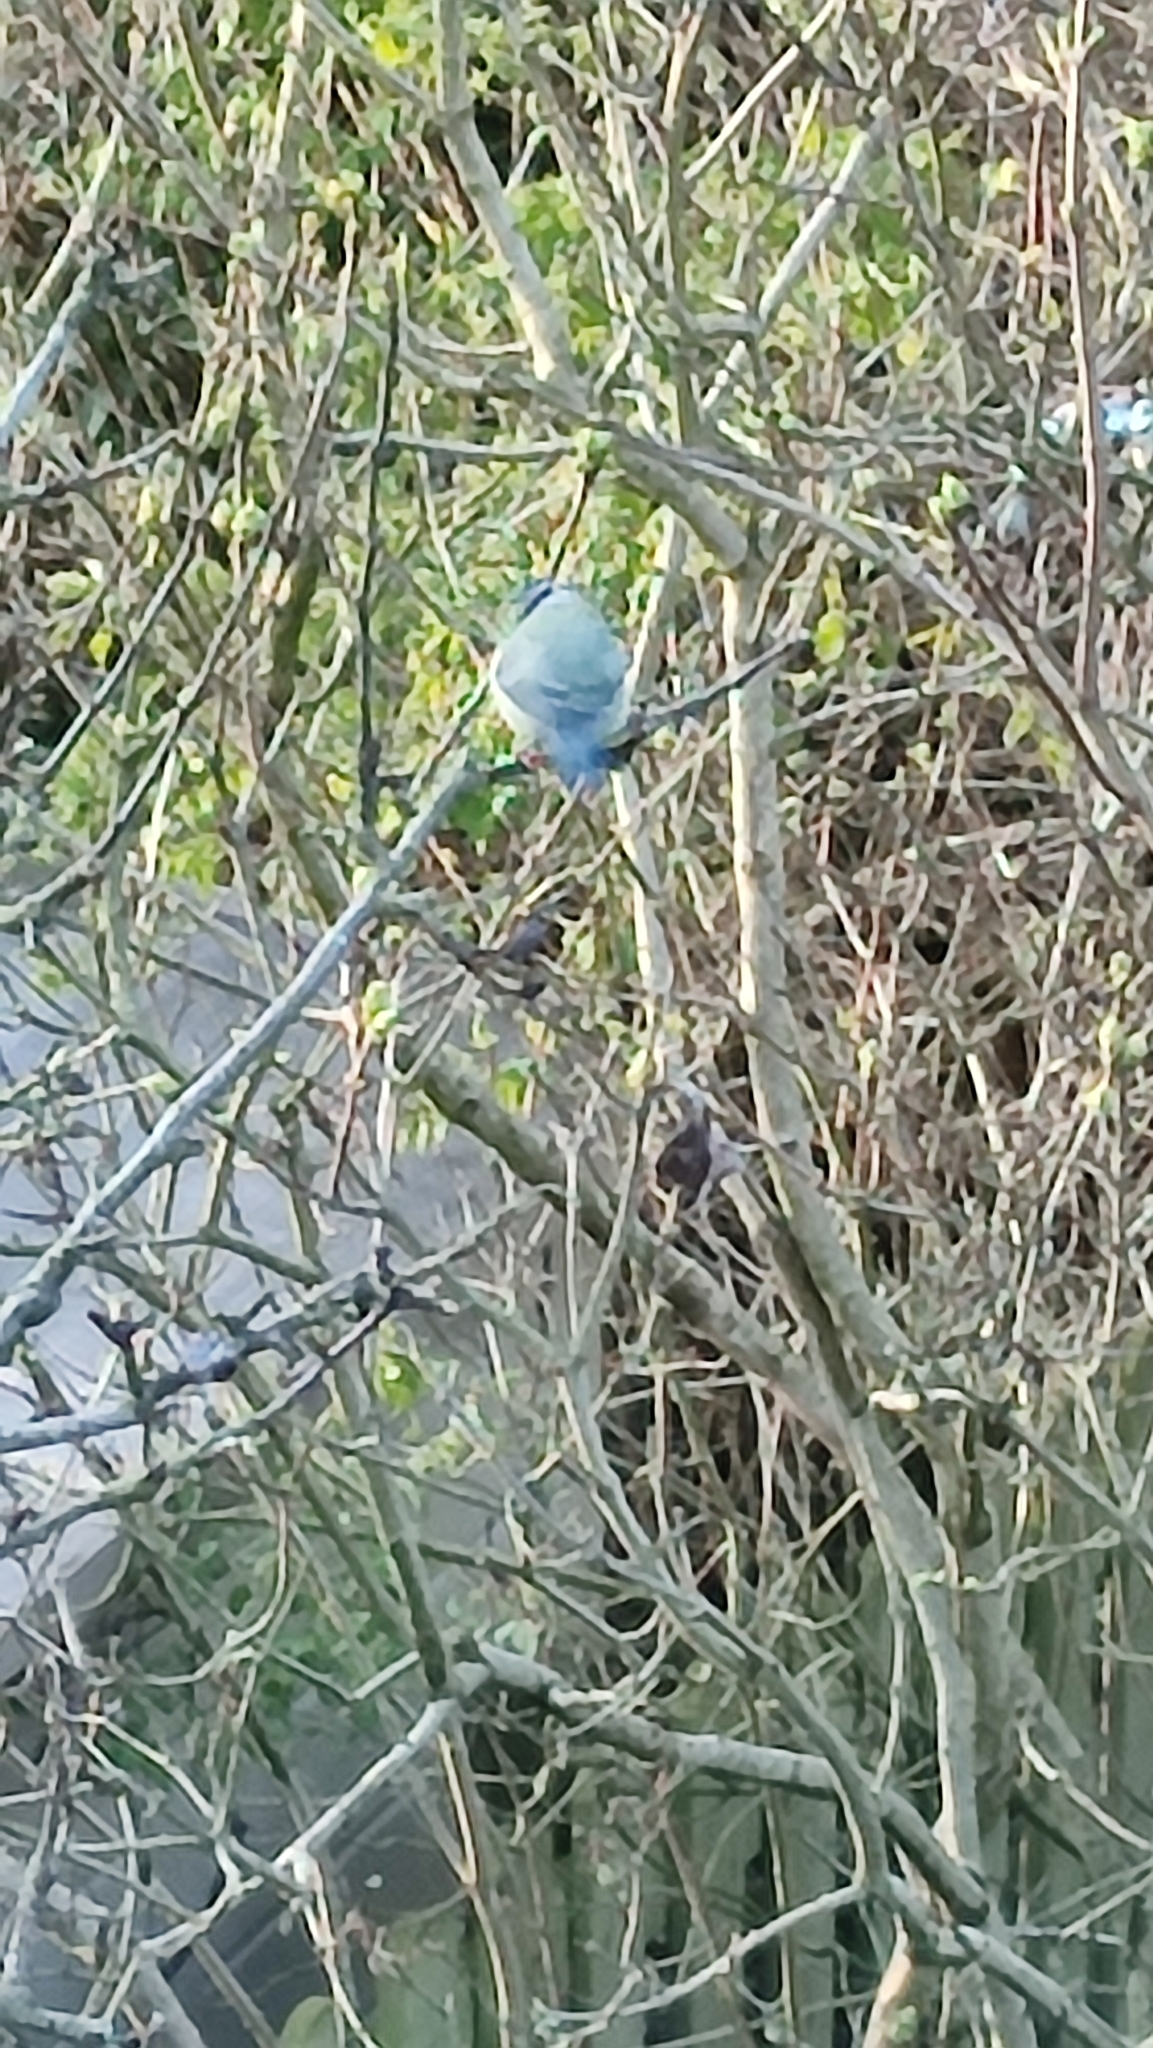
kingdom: Animalia
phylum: Chordata
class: Aves
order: Passeriformes
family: Paridae
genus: Cyanistes
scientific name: Cyanistes caeruleus
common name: Eurasian blue tit
